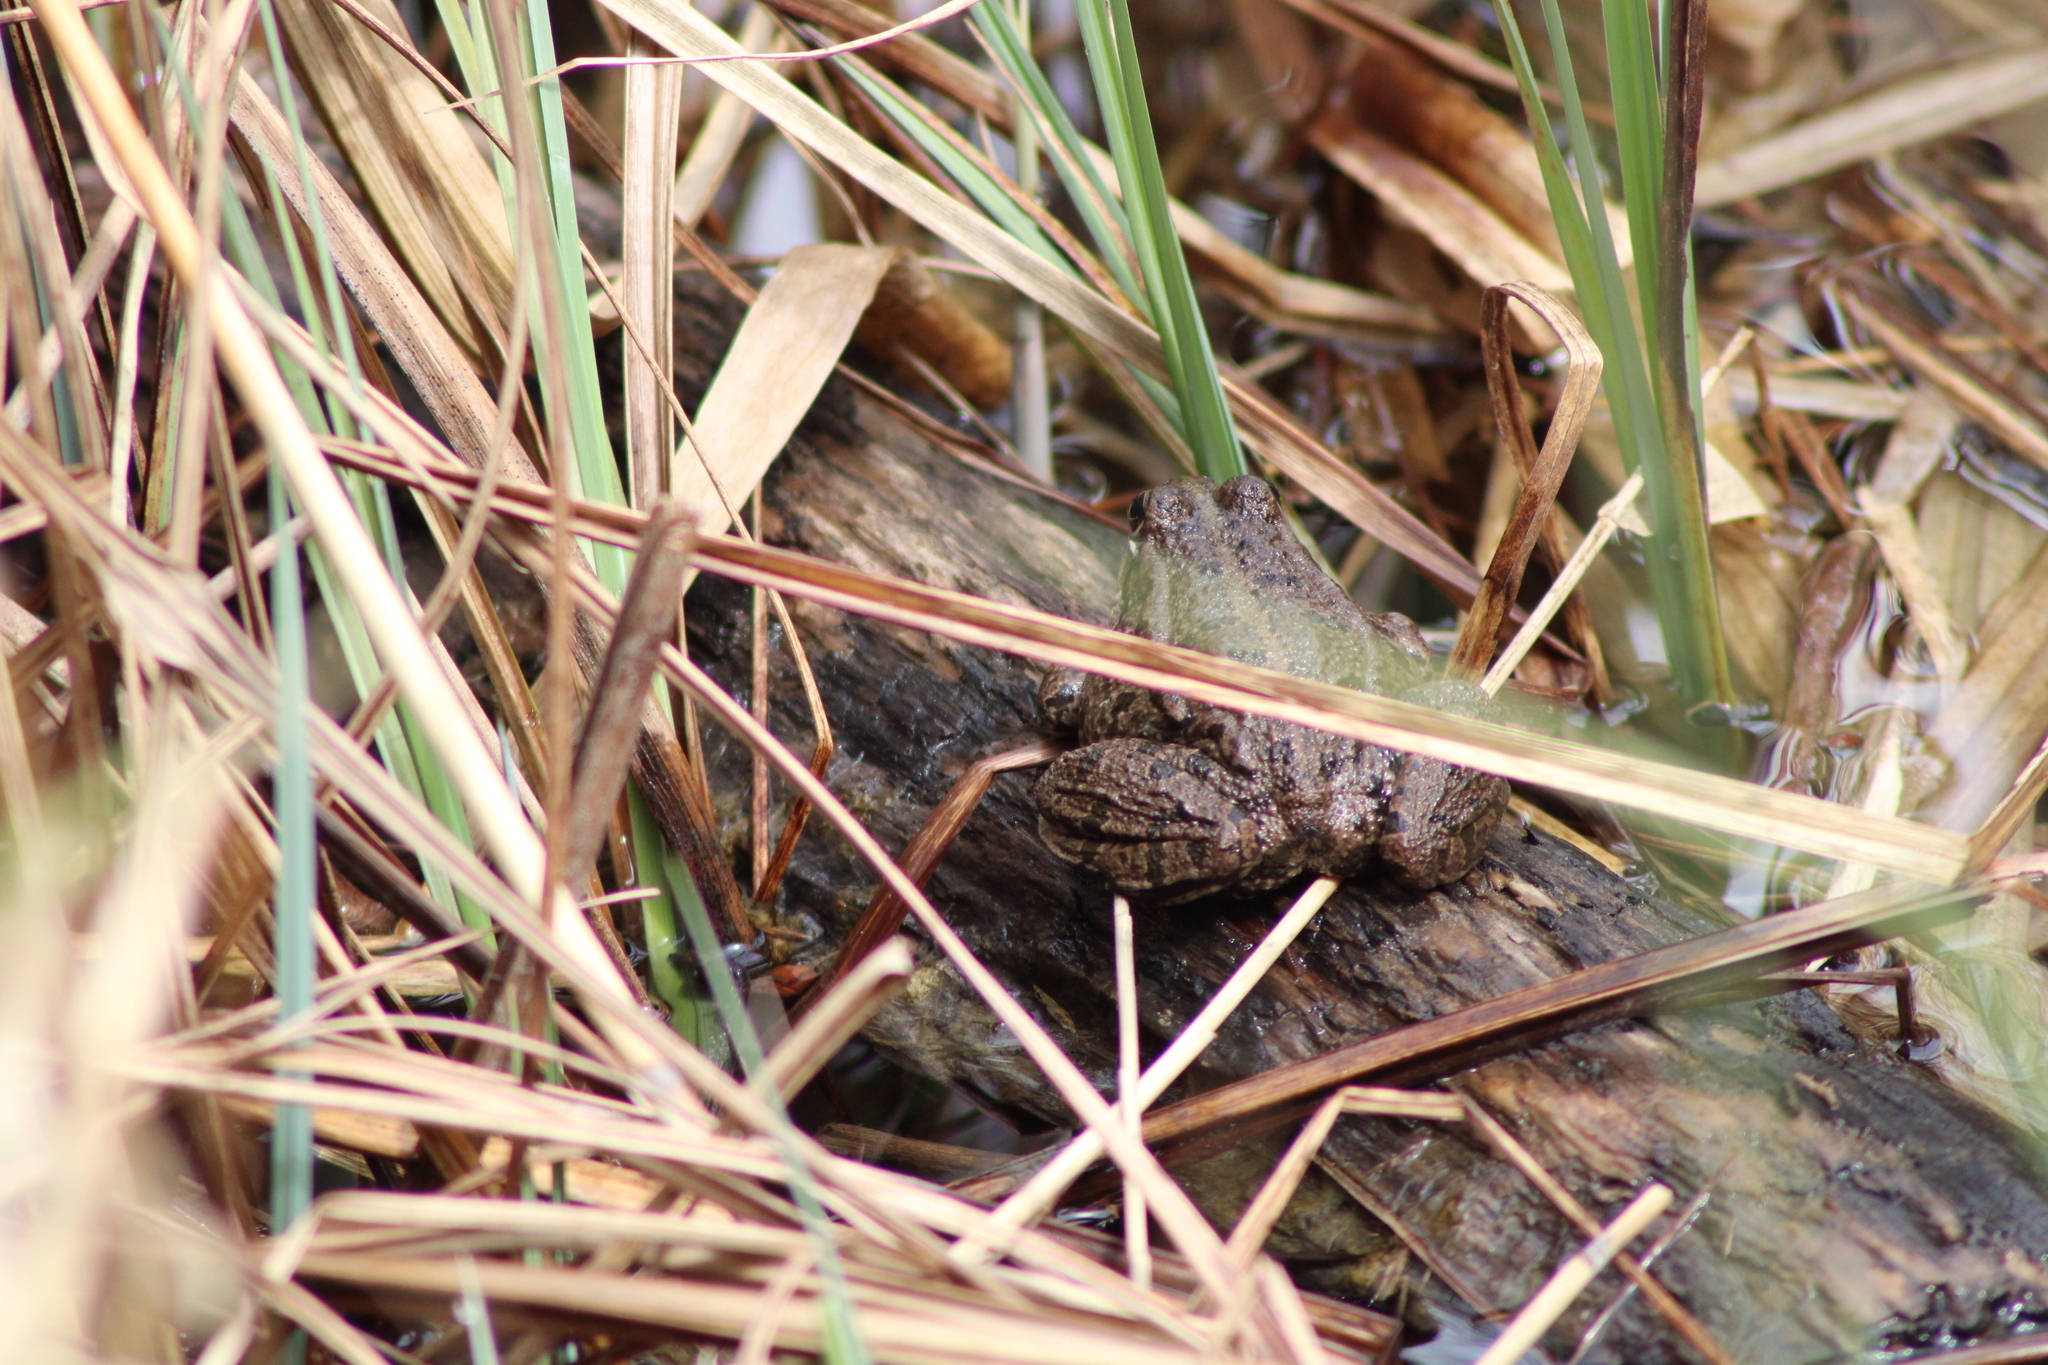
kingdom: Animalia
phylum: Chordata
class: Amphibia
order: Anura
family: Ranidae
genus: Pelophylax
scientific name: Pelophylax
